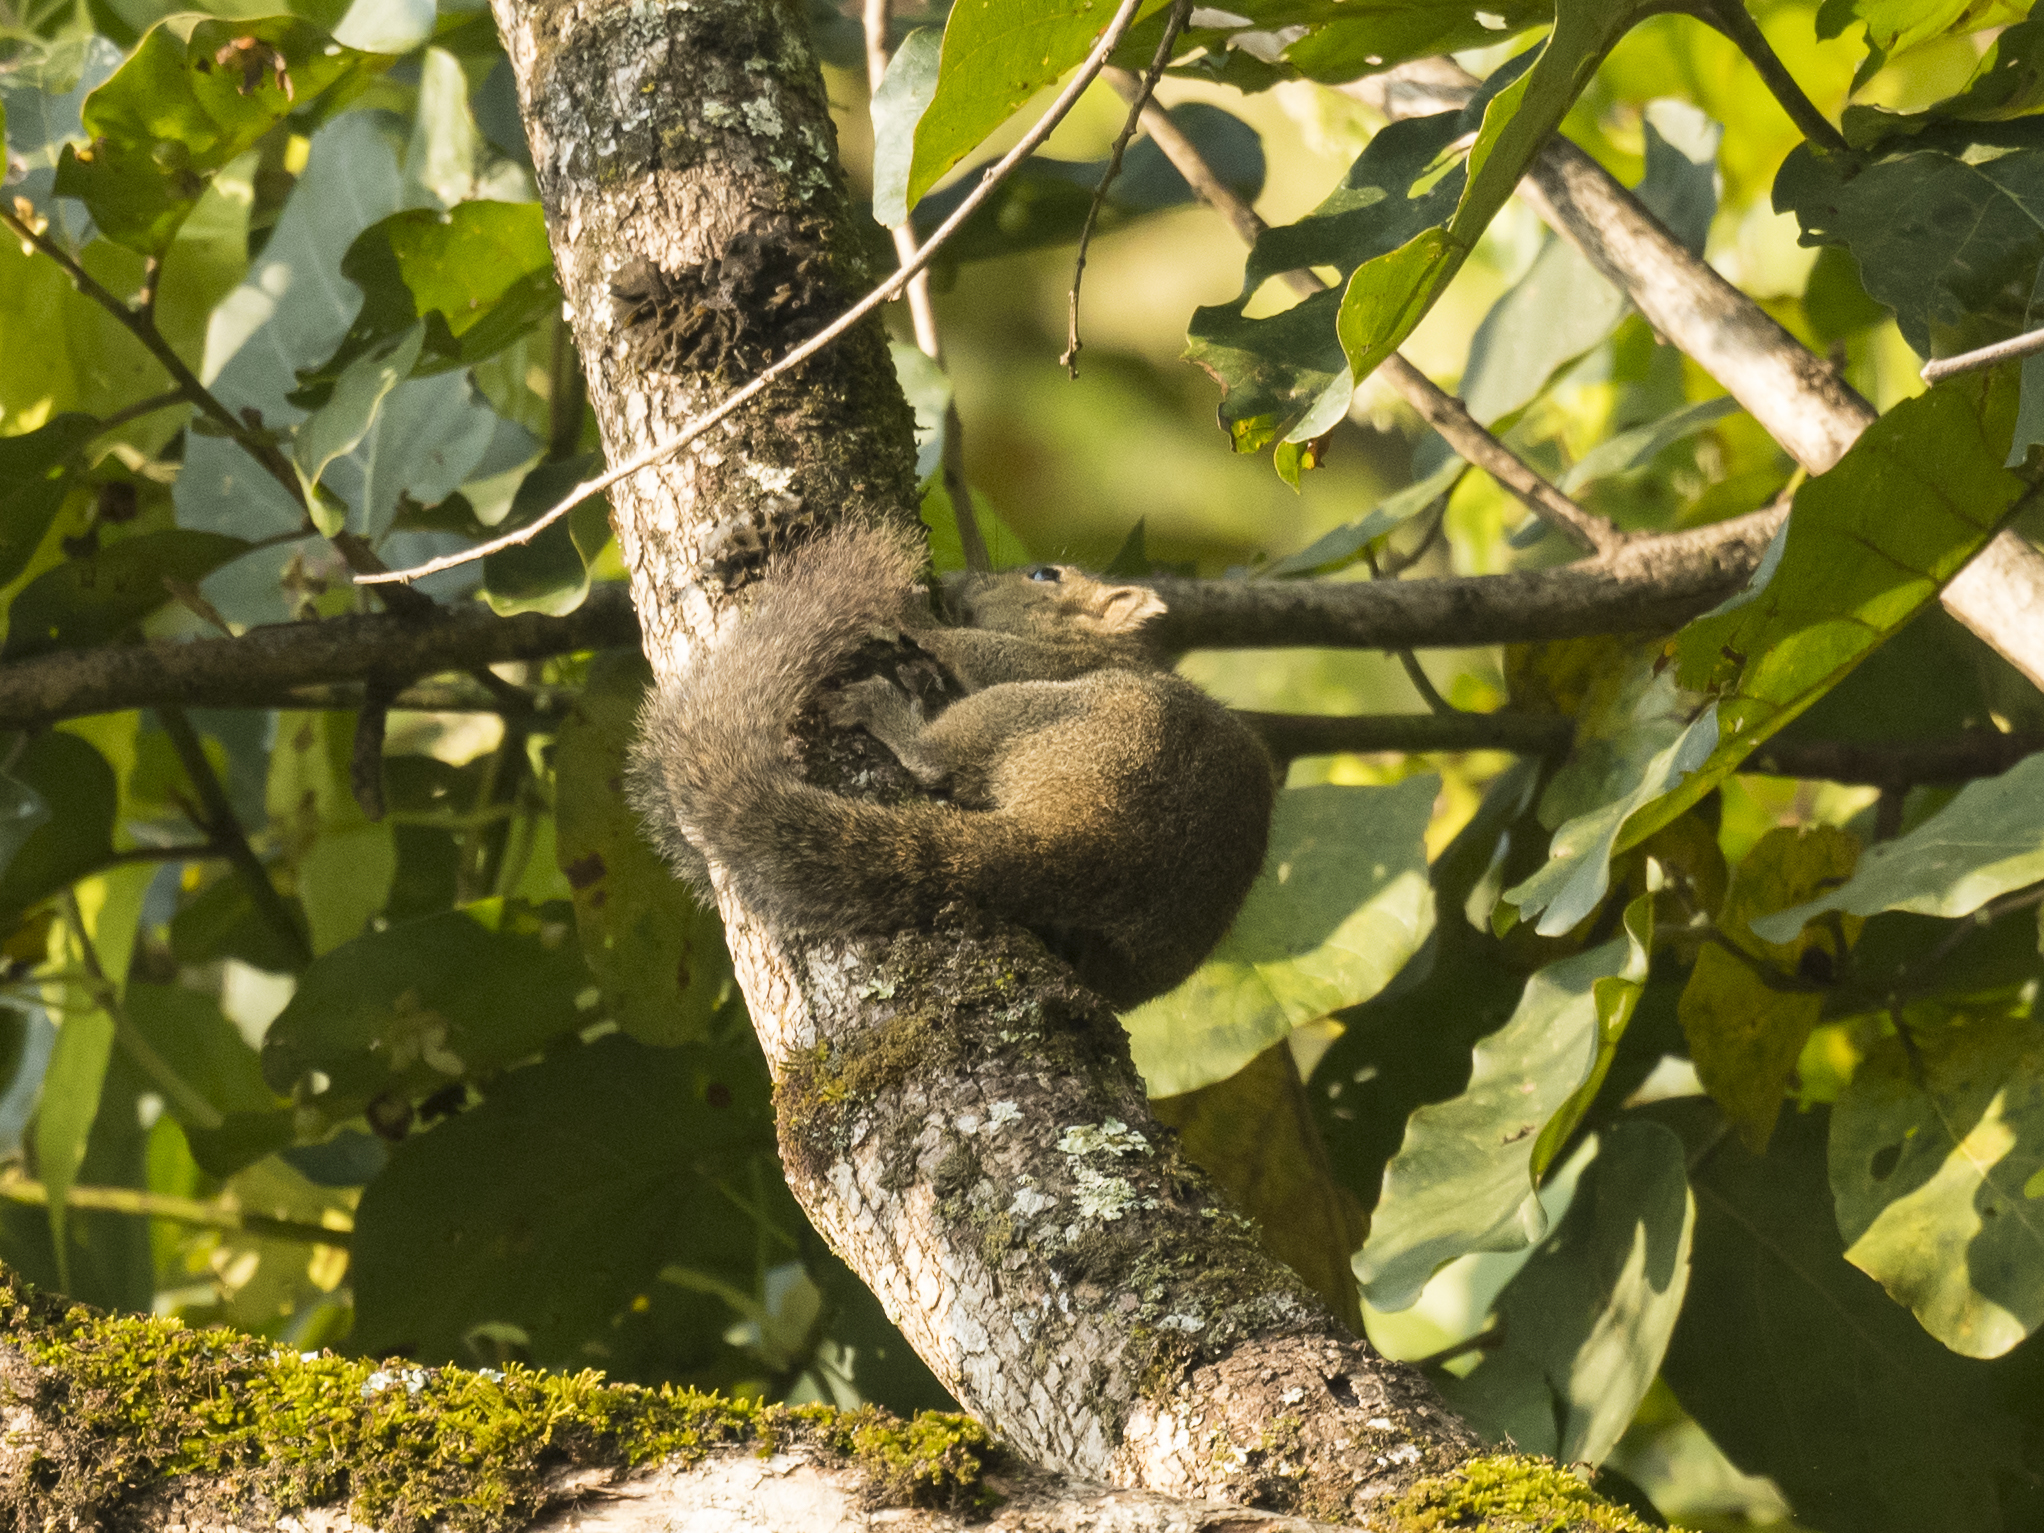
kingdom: Animalia
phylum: Chordata
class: Mammalia
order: Rodentia
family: Sciuridae
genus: Callosciurus
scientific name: Callosciurus pygerythrus
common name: Irrawaddy squirrel
